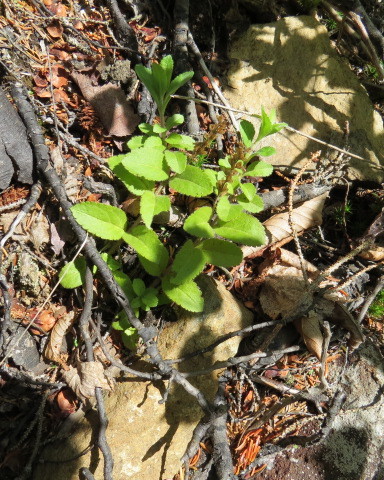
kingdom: Plantae
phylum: Tracheophyta
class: Magnoliopsida
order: Lamiales
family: Plantaginaceae
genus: Veronica
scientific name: Veronica officinalis
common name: Common speedwell
